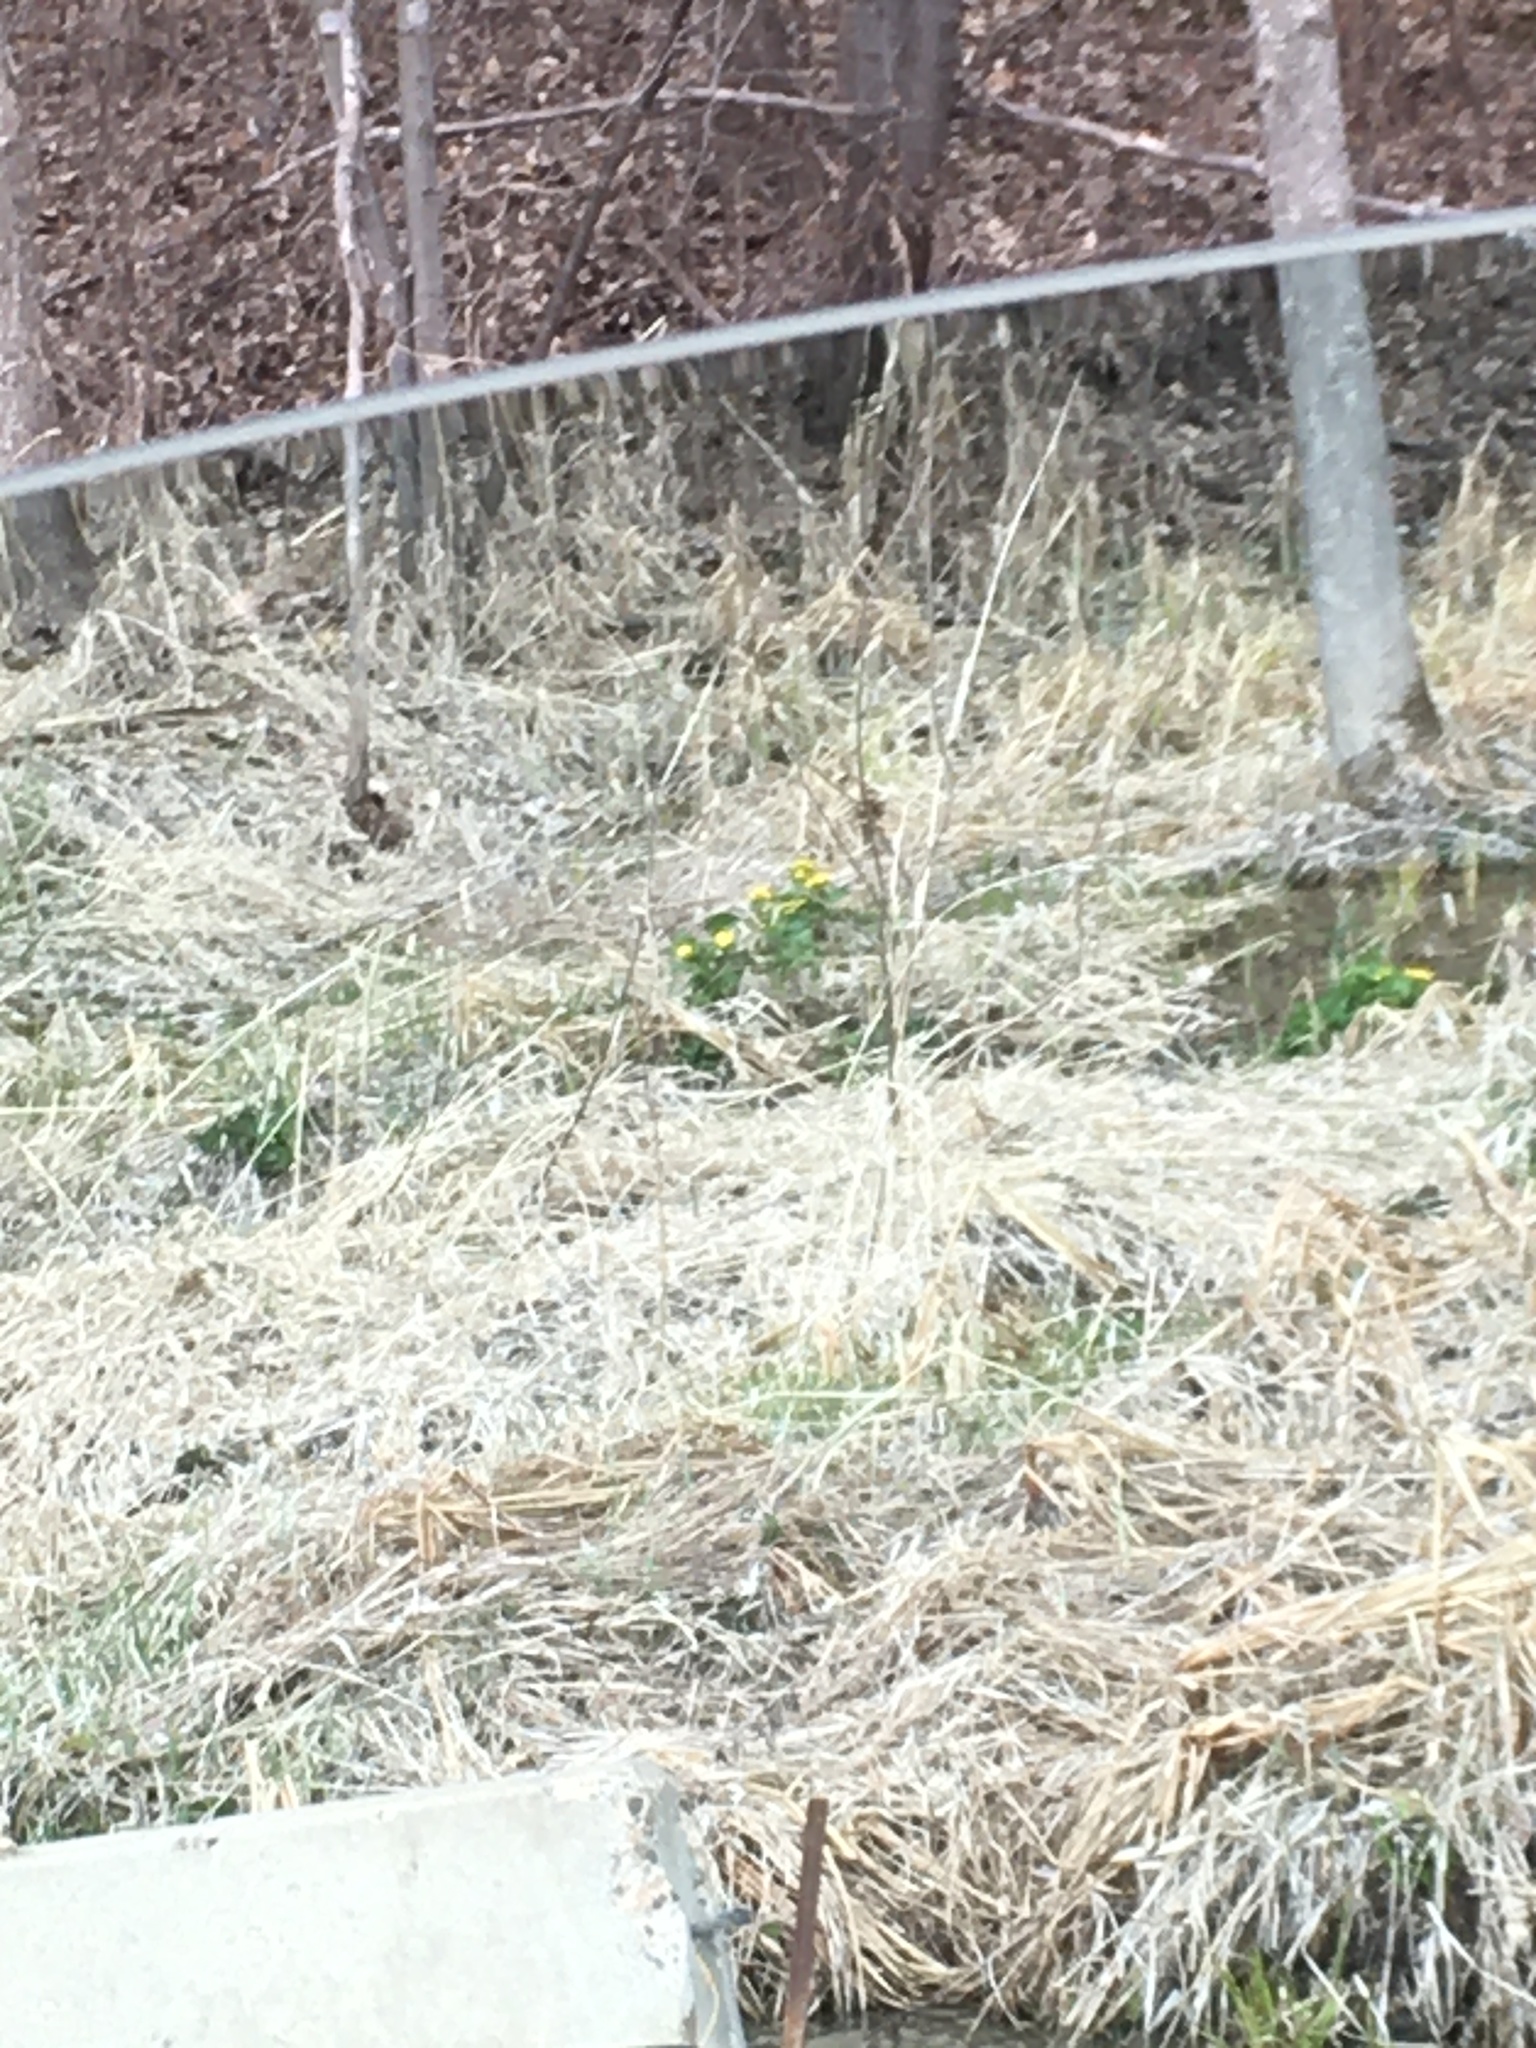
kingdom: Plantae
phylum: Tracheophyta
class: Magnoliopsida
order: Ranunculales
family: Ranunculaceae
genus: Caltha
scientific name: Caltha palustris
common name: Marsh marigold
